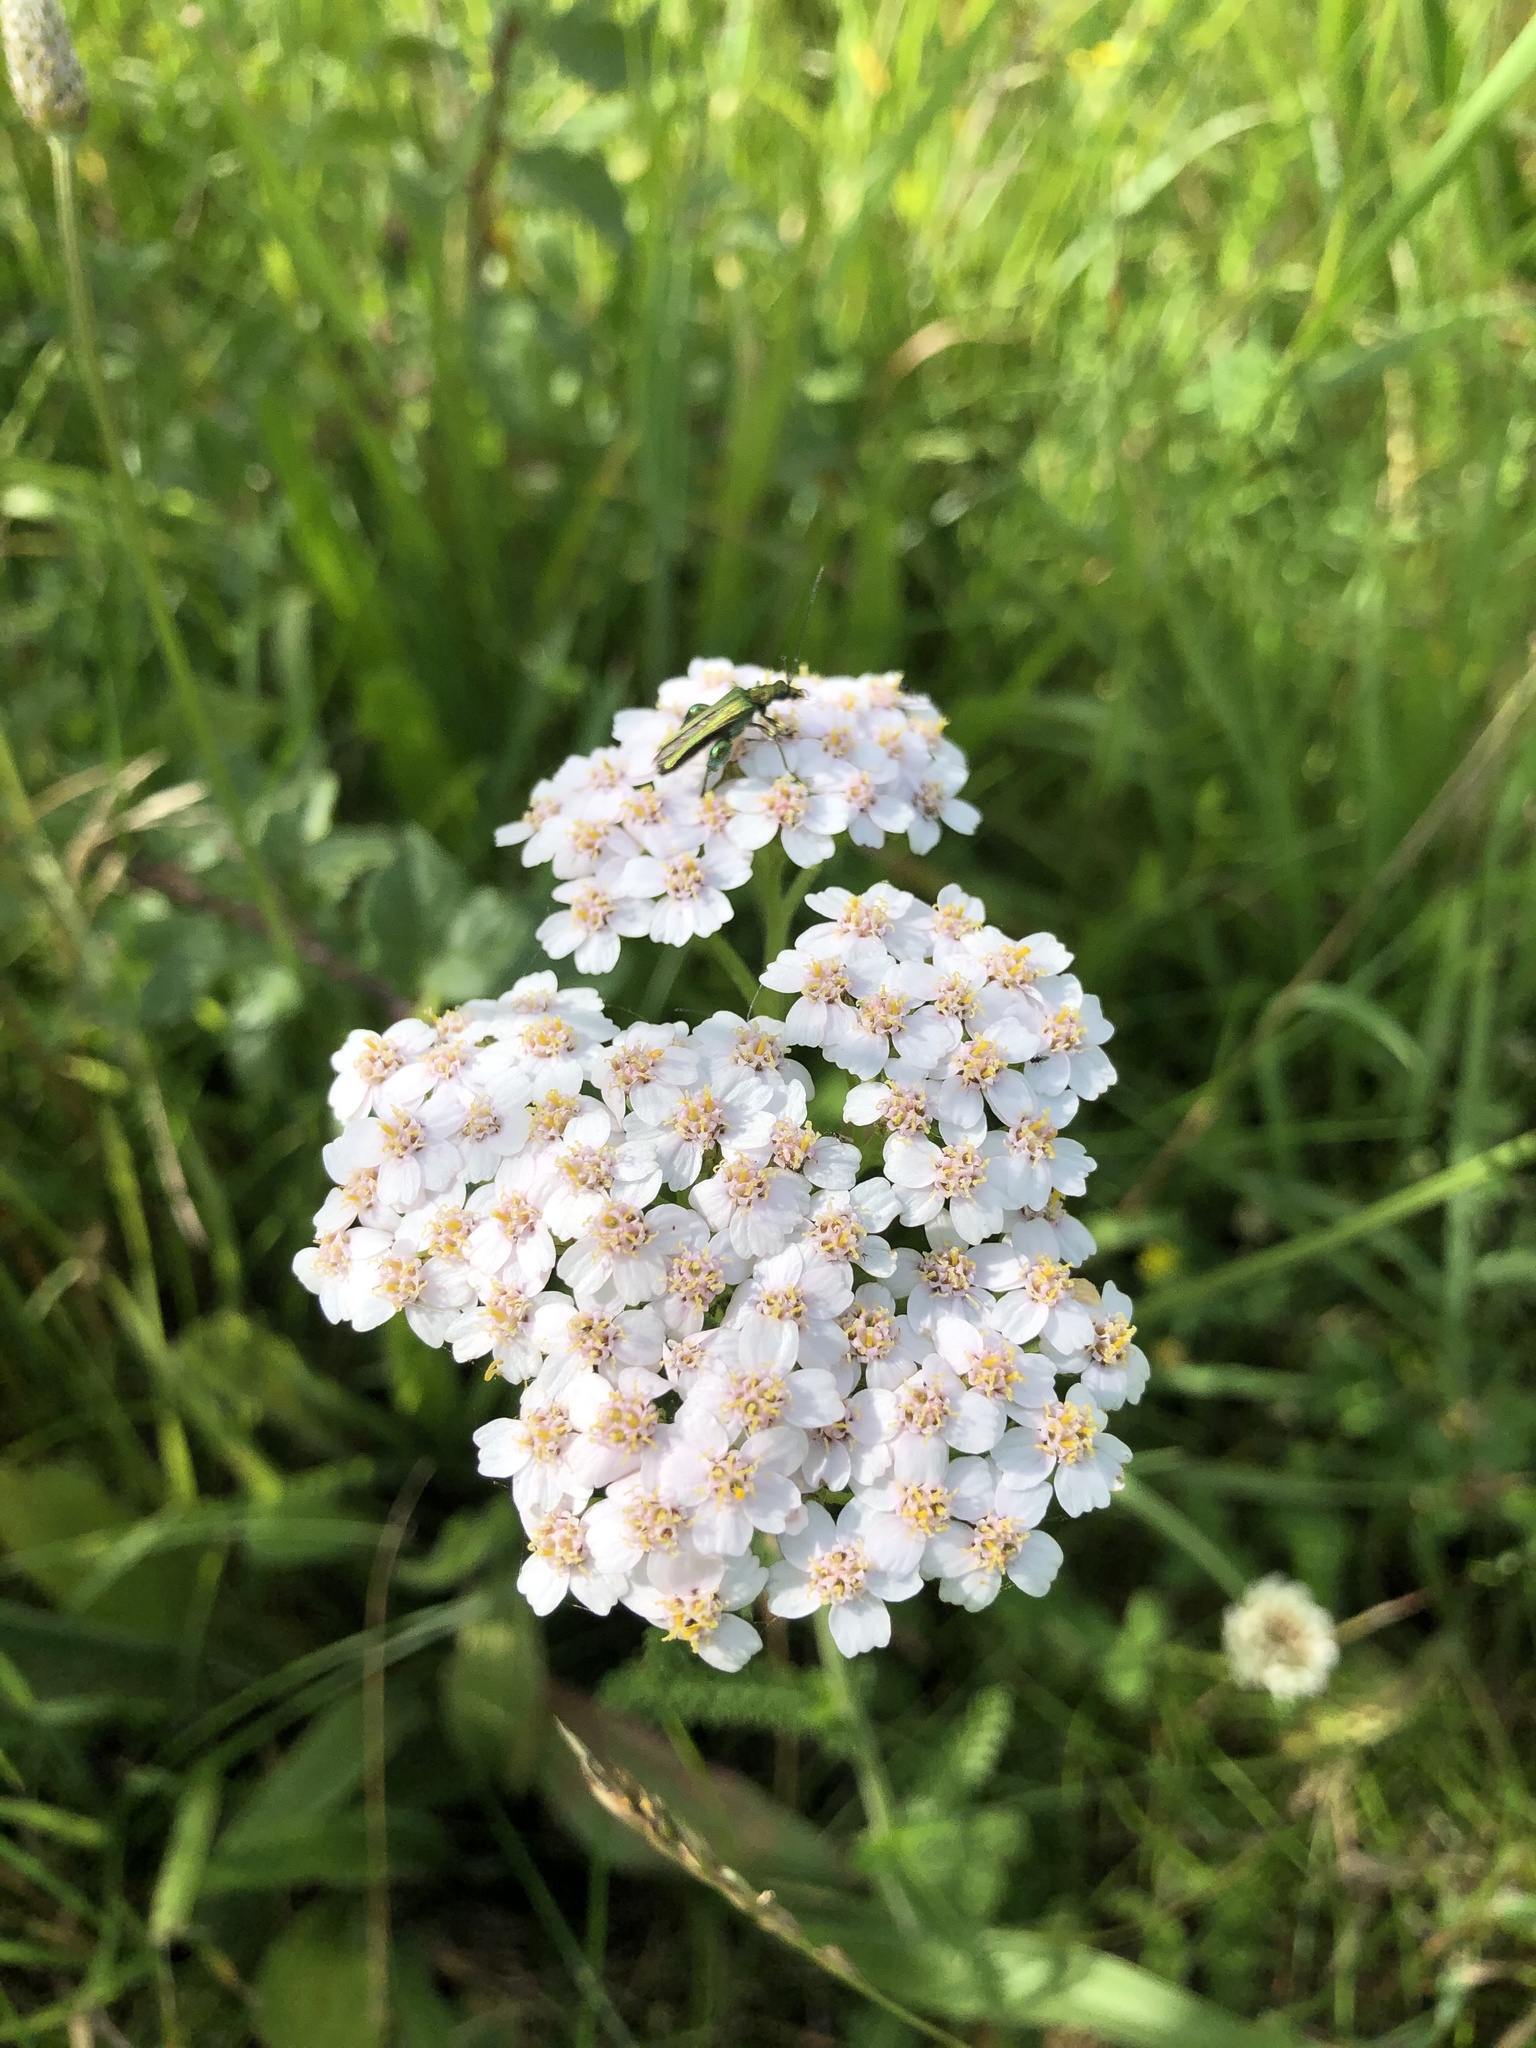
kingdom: Plantae
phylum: Tracheophyta
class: Magnoliopsida
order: Asterales
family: Asteraceae
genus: Achillea
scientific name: Achillea millefolium
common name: Yarrow
